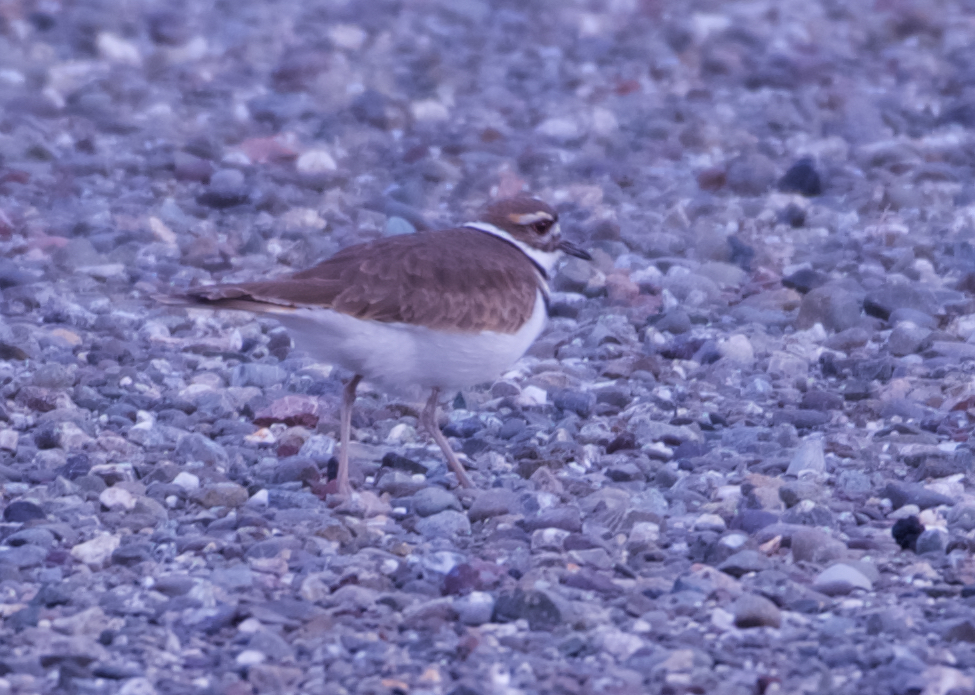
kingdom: Animalia
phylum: Chordata
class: Aves
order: Charadriiformes
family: Charadriidae
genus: Charadrius
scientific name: Charadrius vociferus
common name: Killdeer
